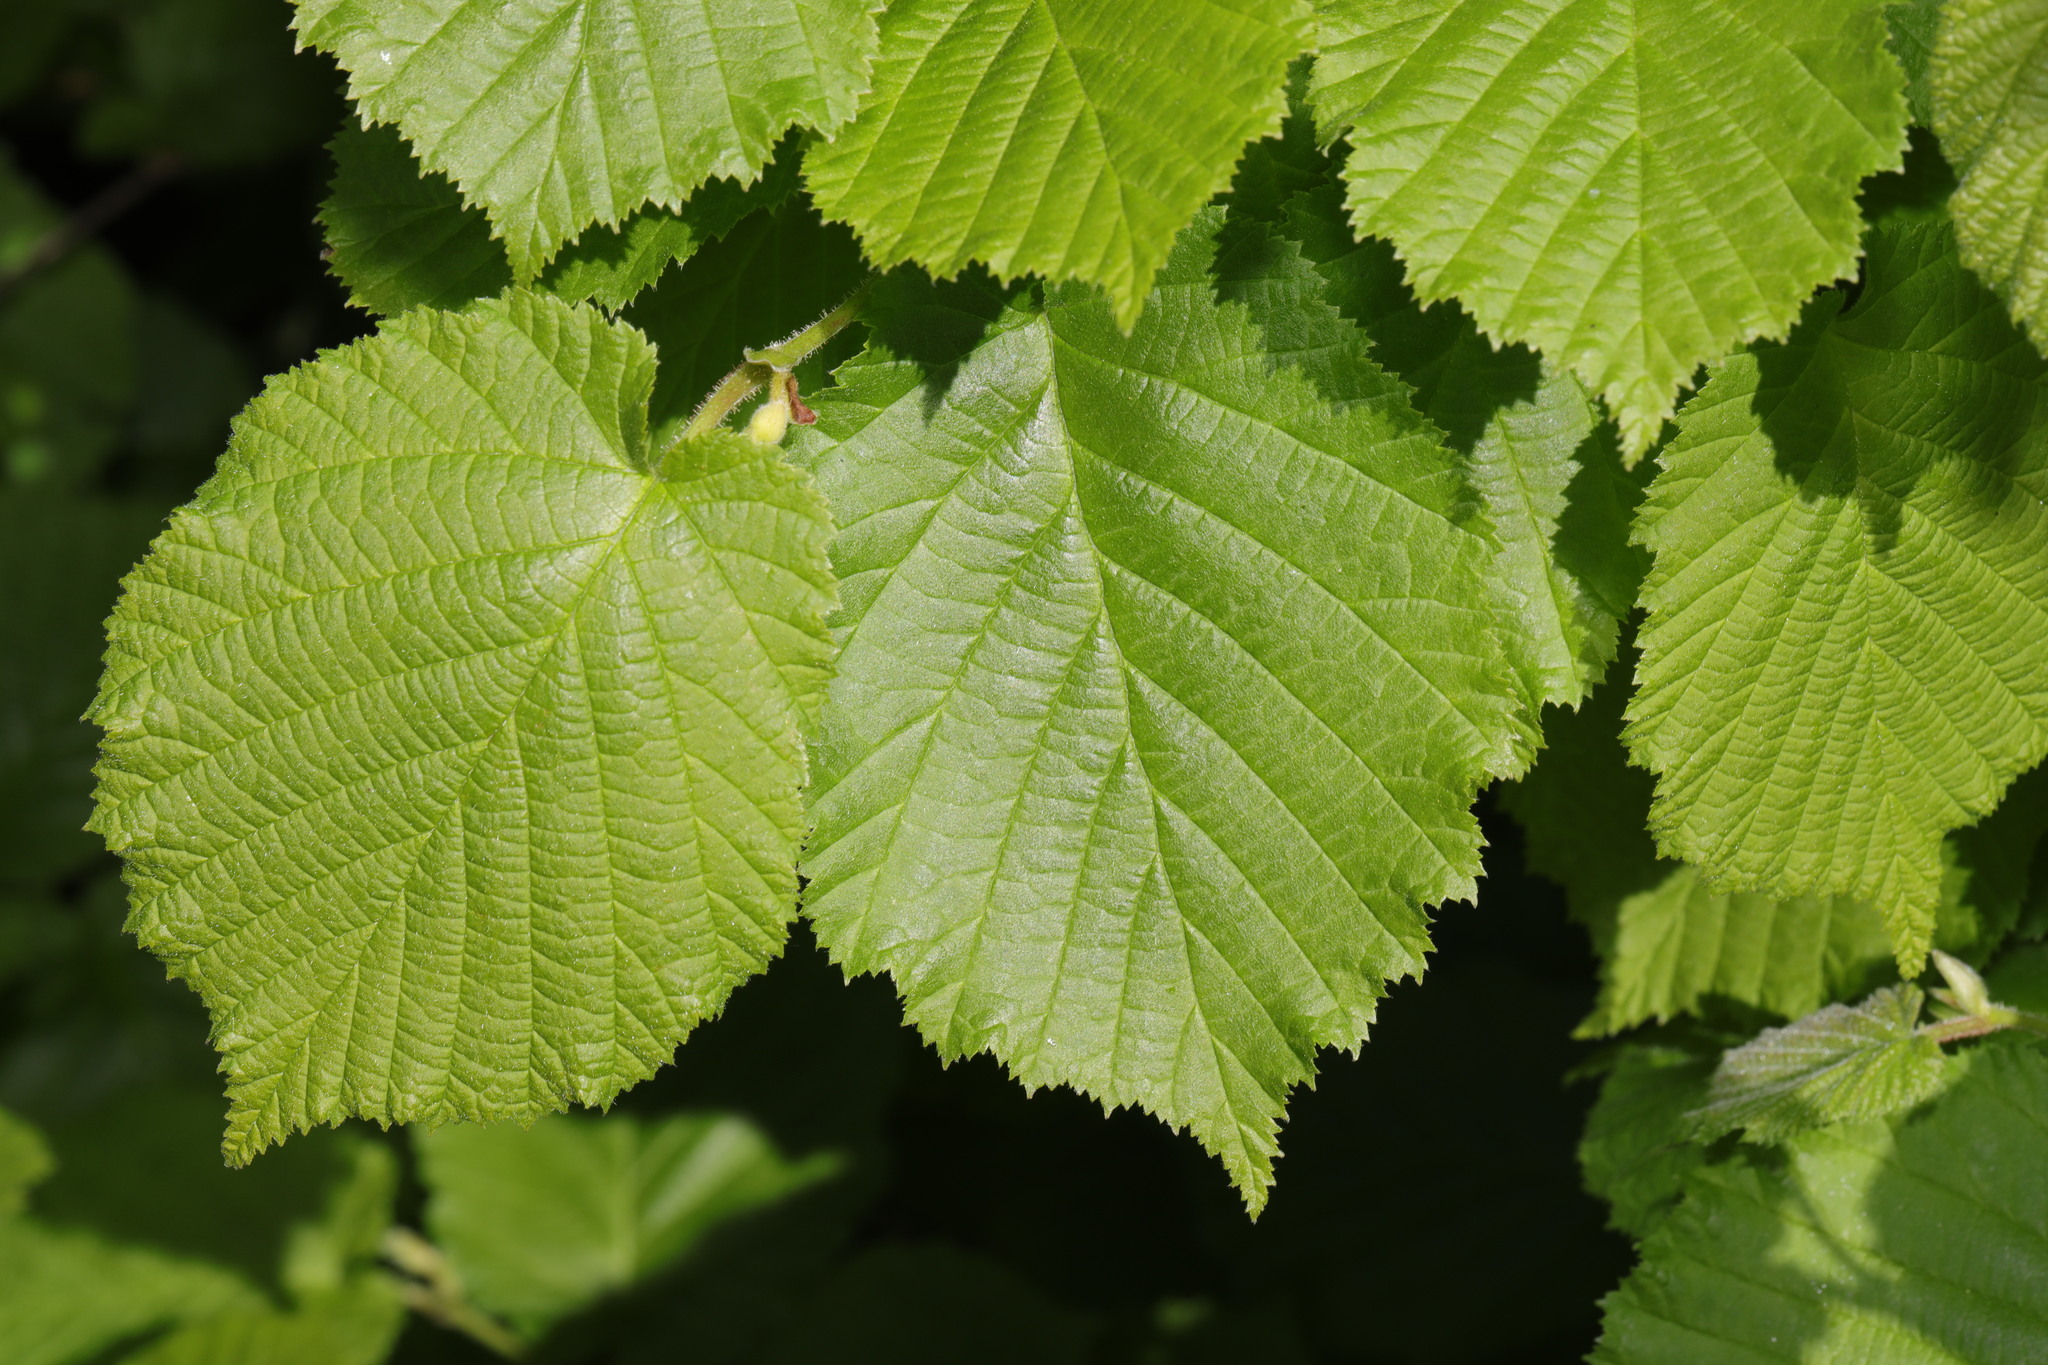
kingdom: Plantae
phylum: Tracheophyta
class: Magnoliopsida
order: Fagales
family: Betulaceae
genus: Corylus
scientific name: Corylus avellana
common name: European hazel
